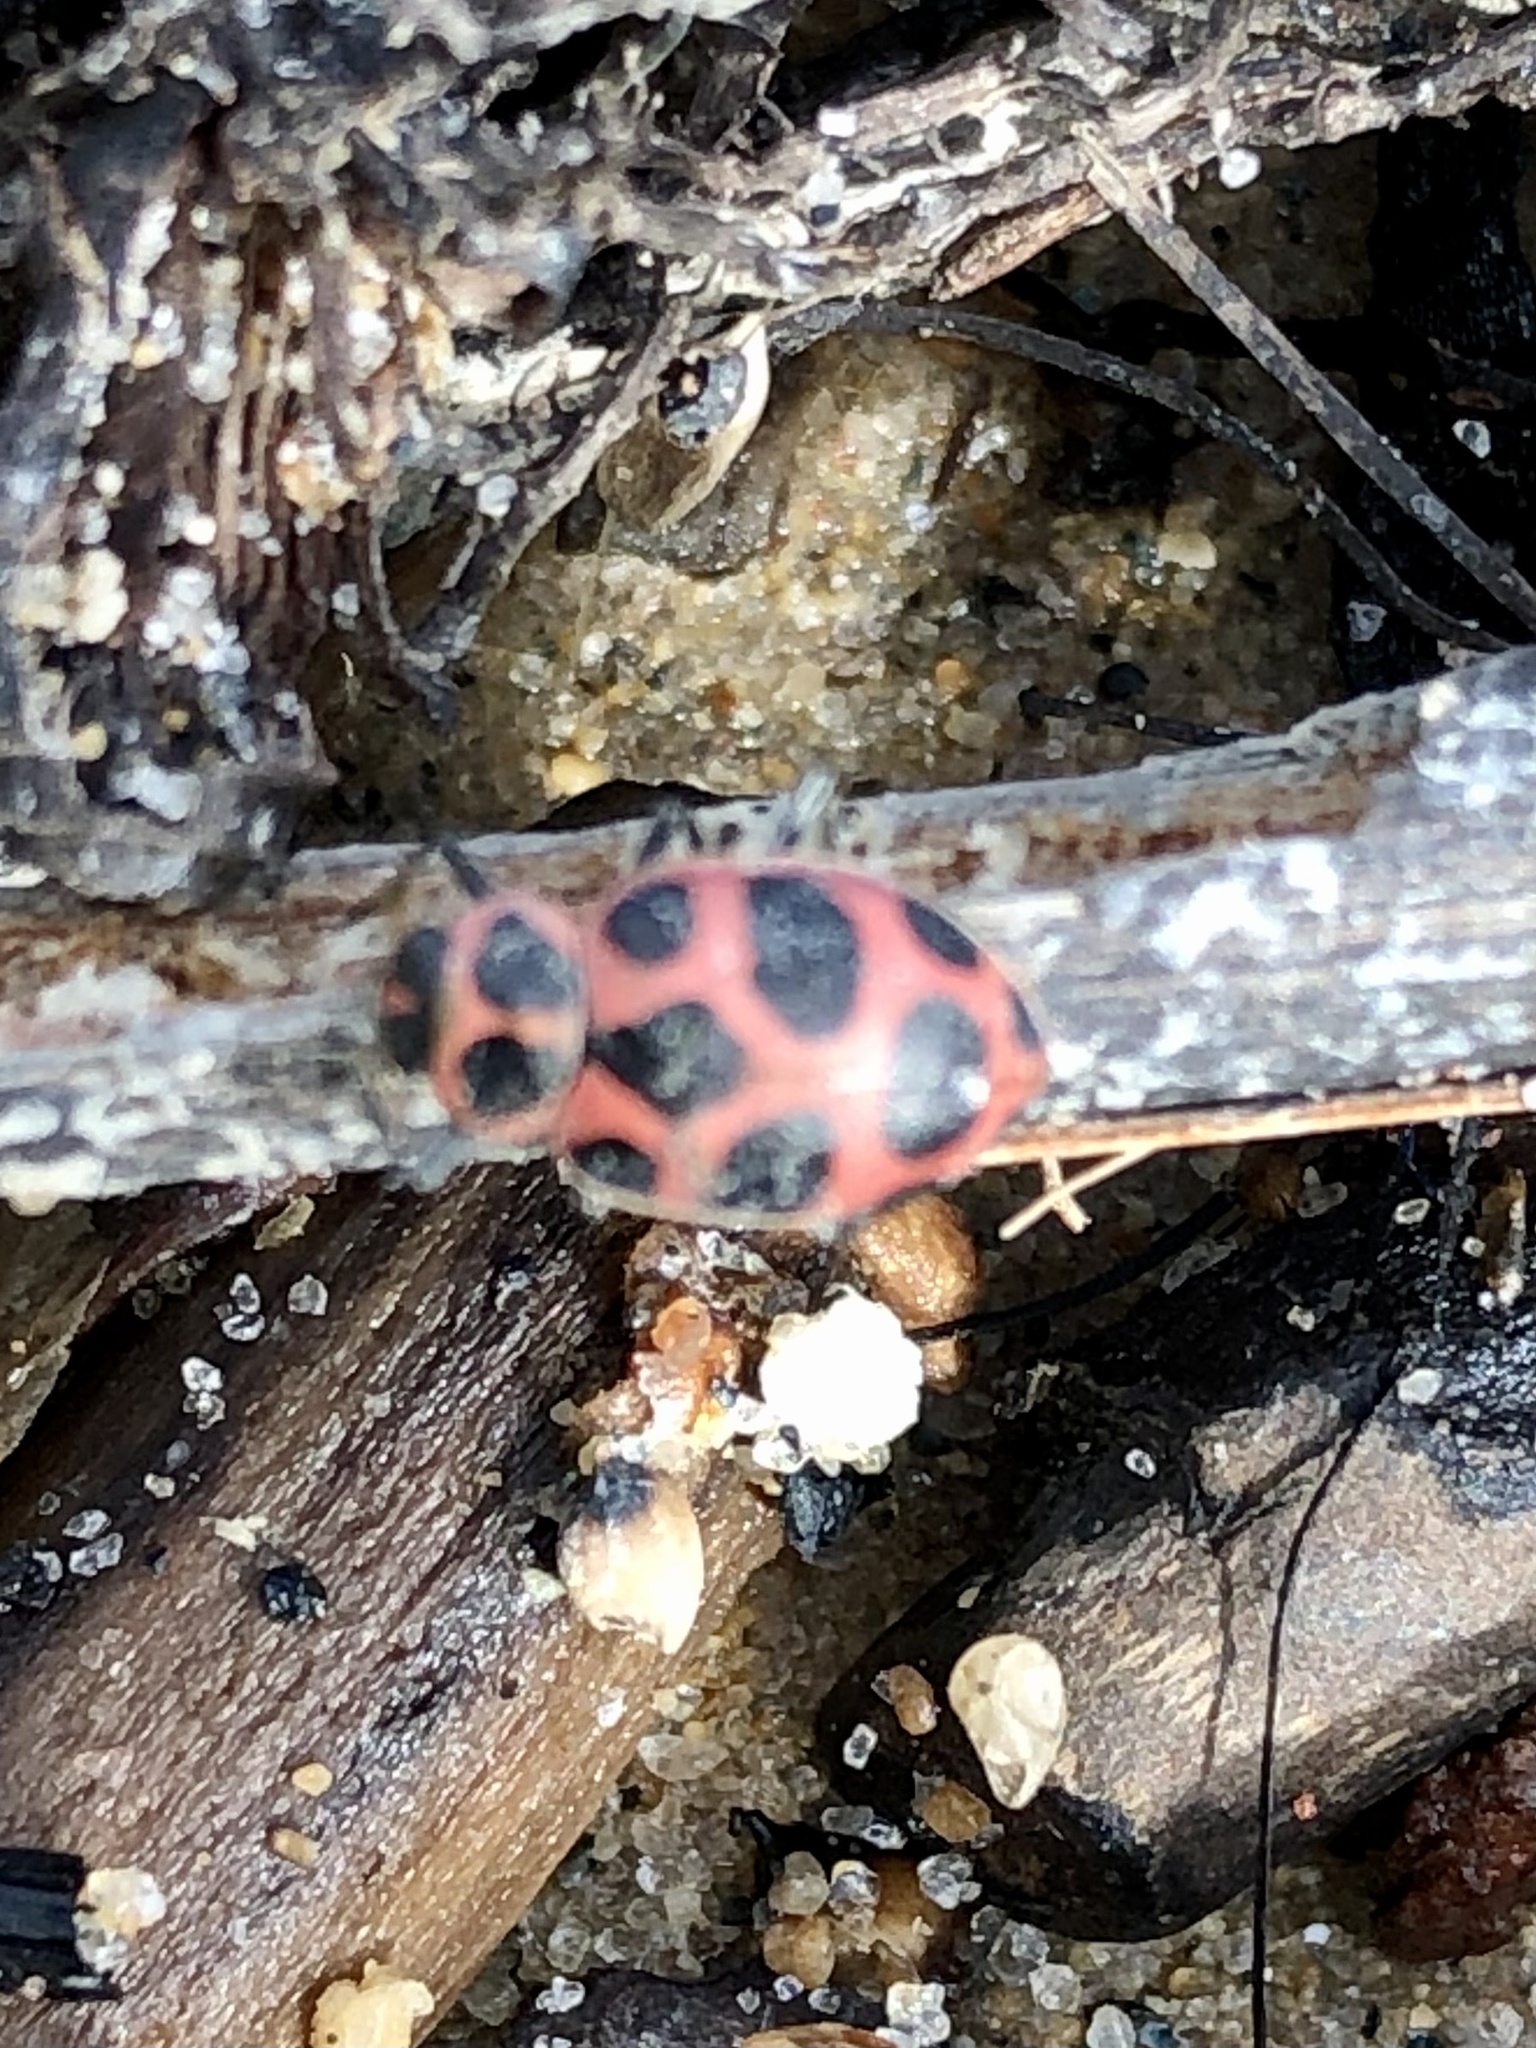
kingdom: Animalia
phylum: Arthropoda
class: Insecta
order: Coleoptera
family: Coccinellidae
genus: Coleomegilla
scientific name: Coleomegilla maculata
